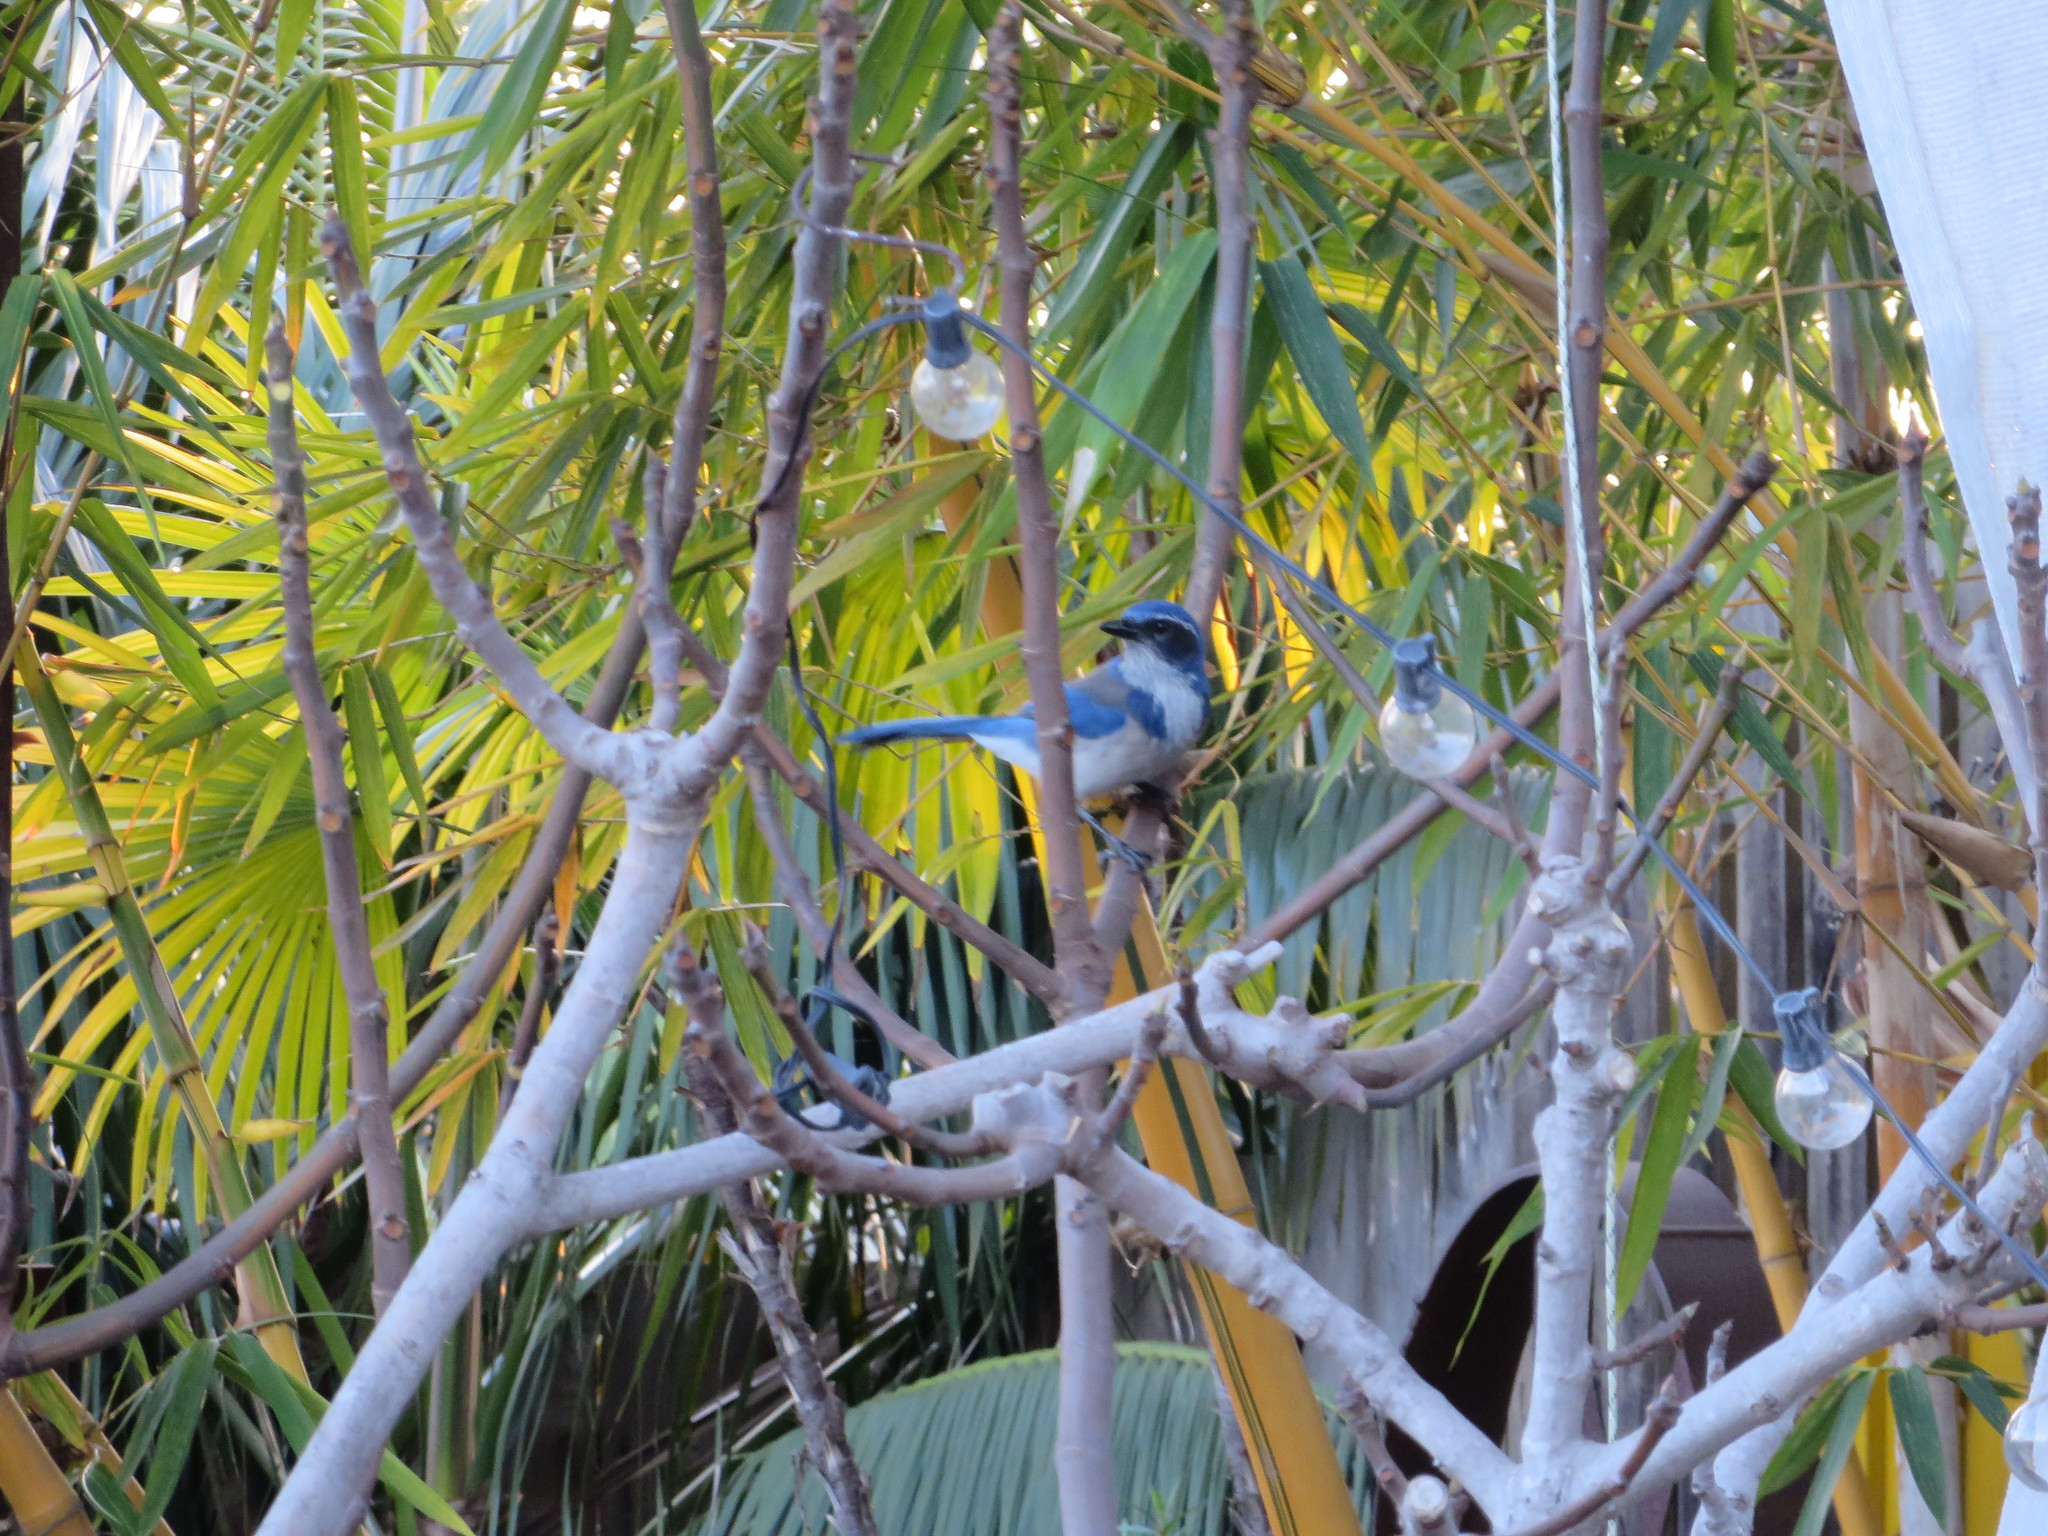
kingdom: Animalia
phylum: Chordata
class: Aves
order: Passeriformes
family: Corvidae
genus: Aphelocoma
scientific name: Aphelocoma californica
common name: California scrub-jay
